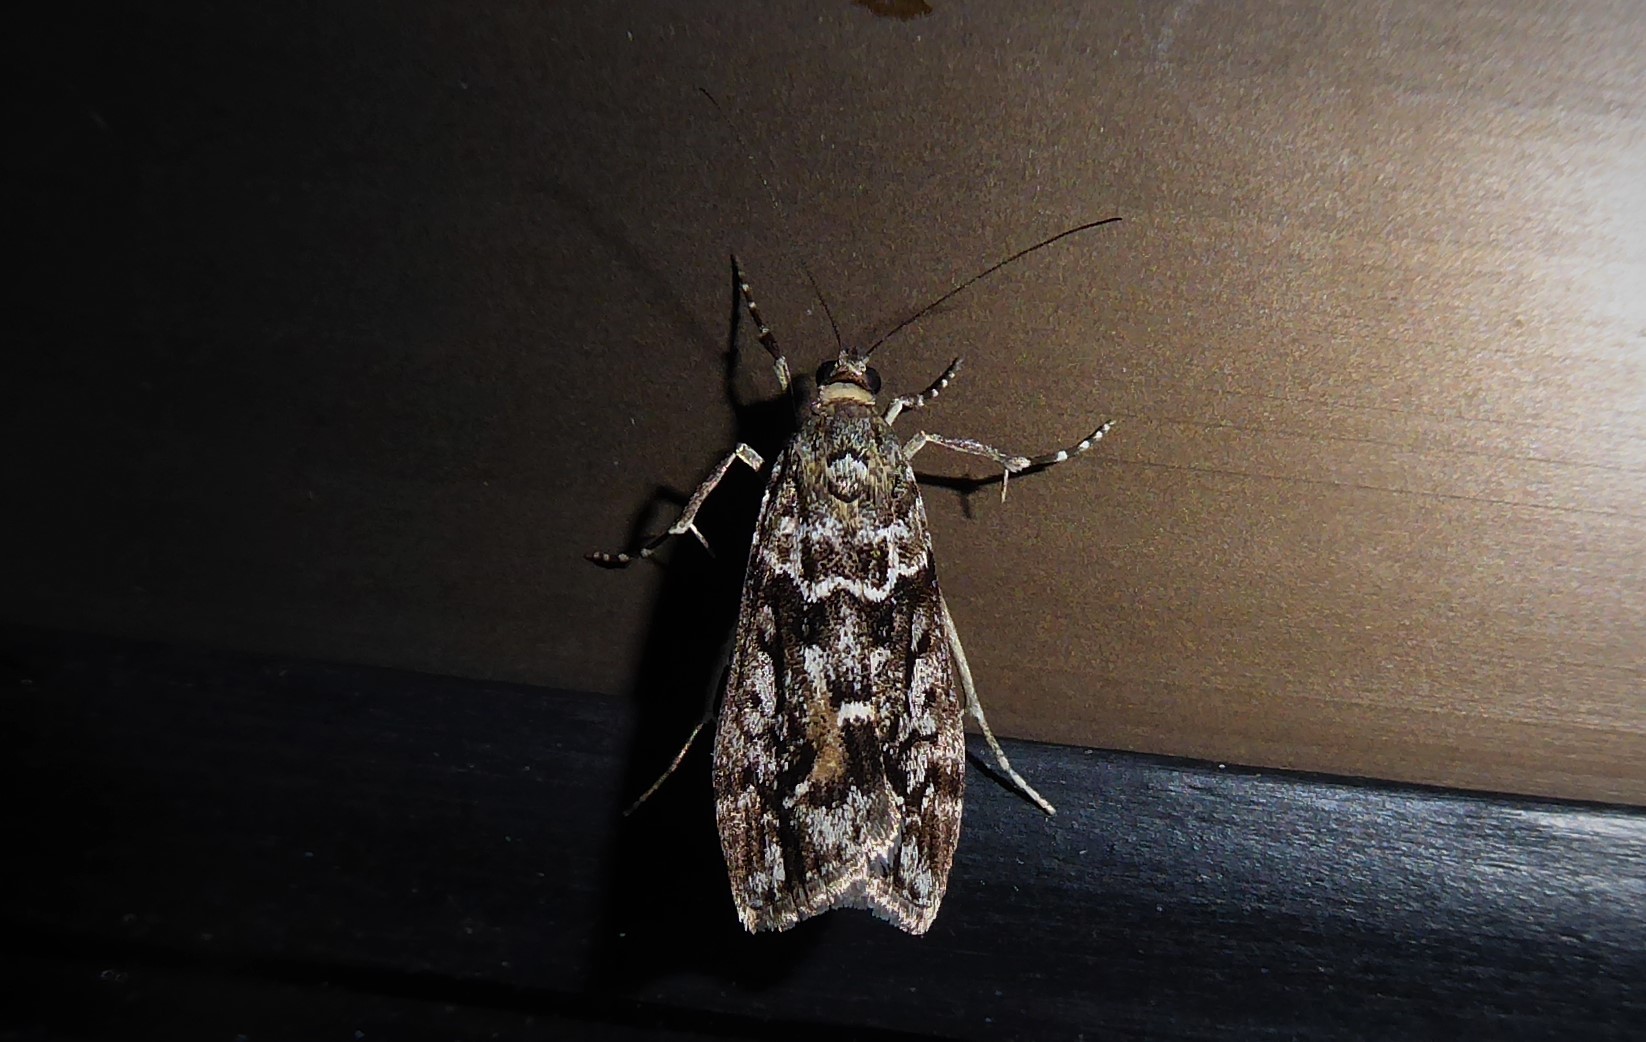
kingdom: Animalia
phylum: Arthropoda
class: Insecta
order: Lepidoptera
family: Crambidae
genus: Eudonia
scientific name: Eudonia submarginalis
